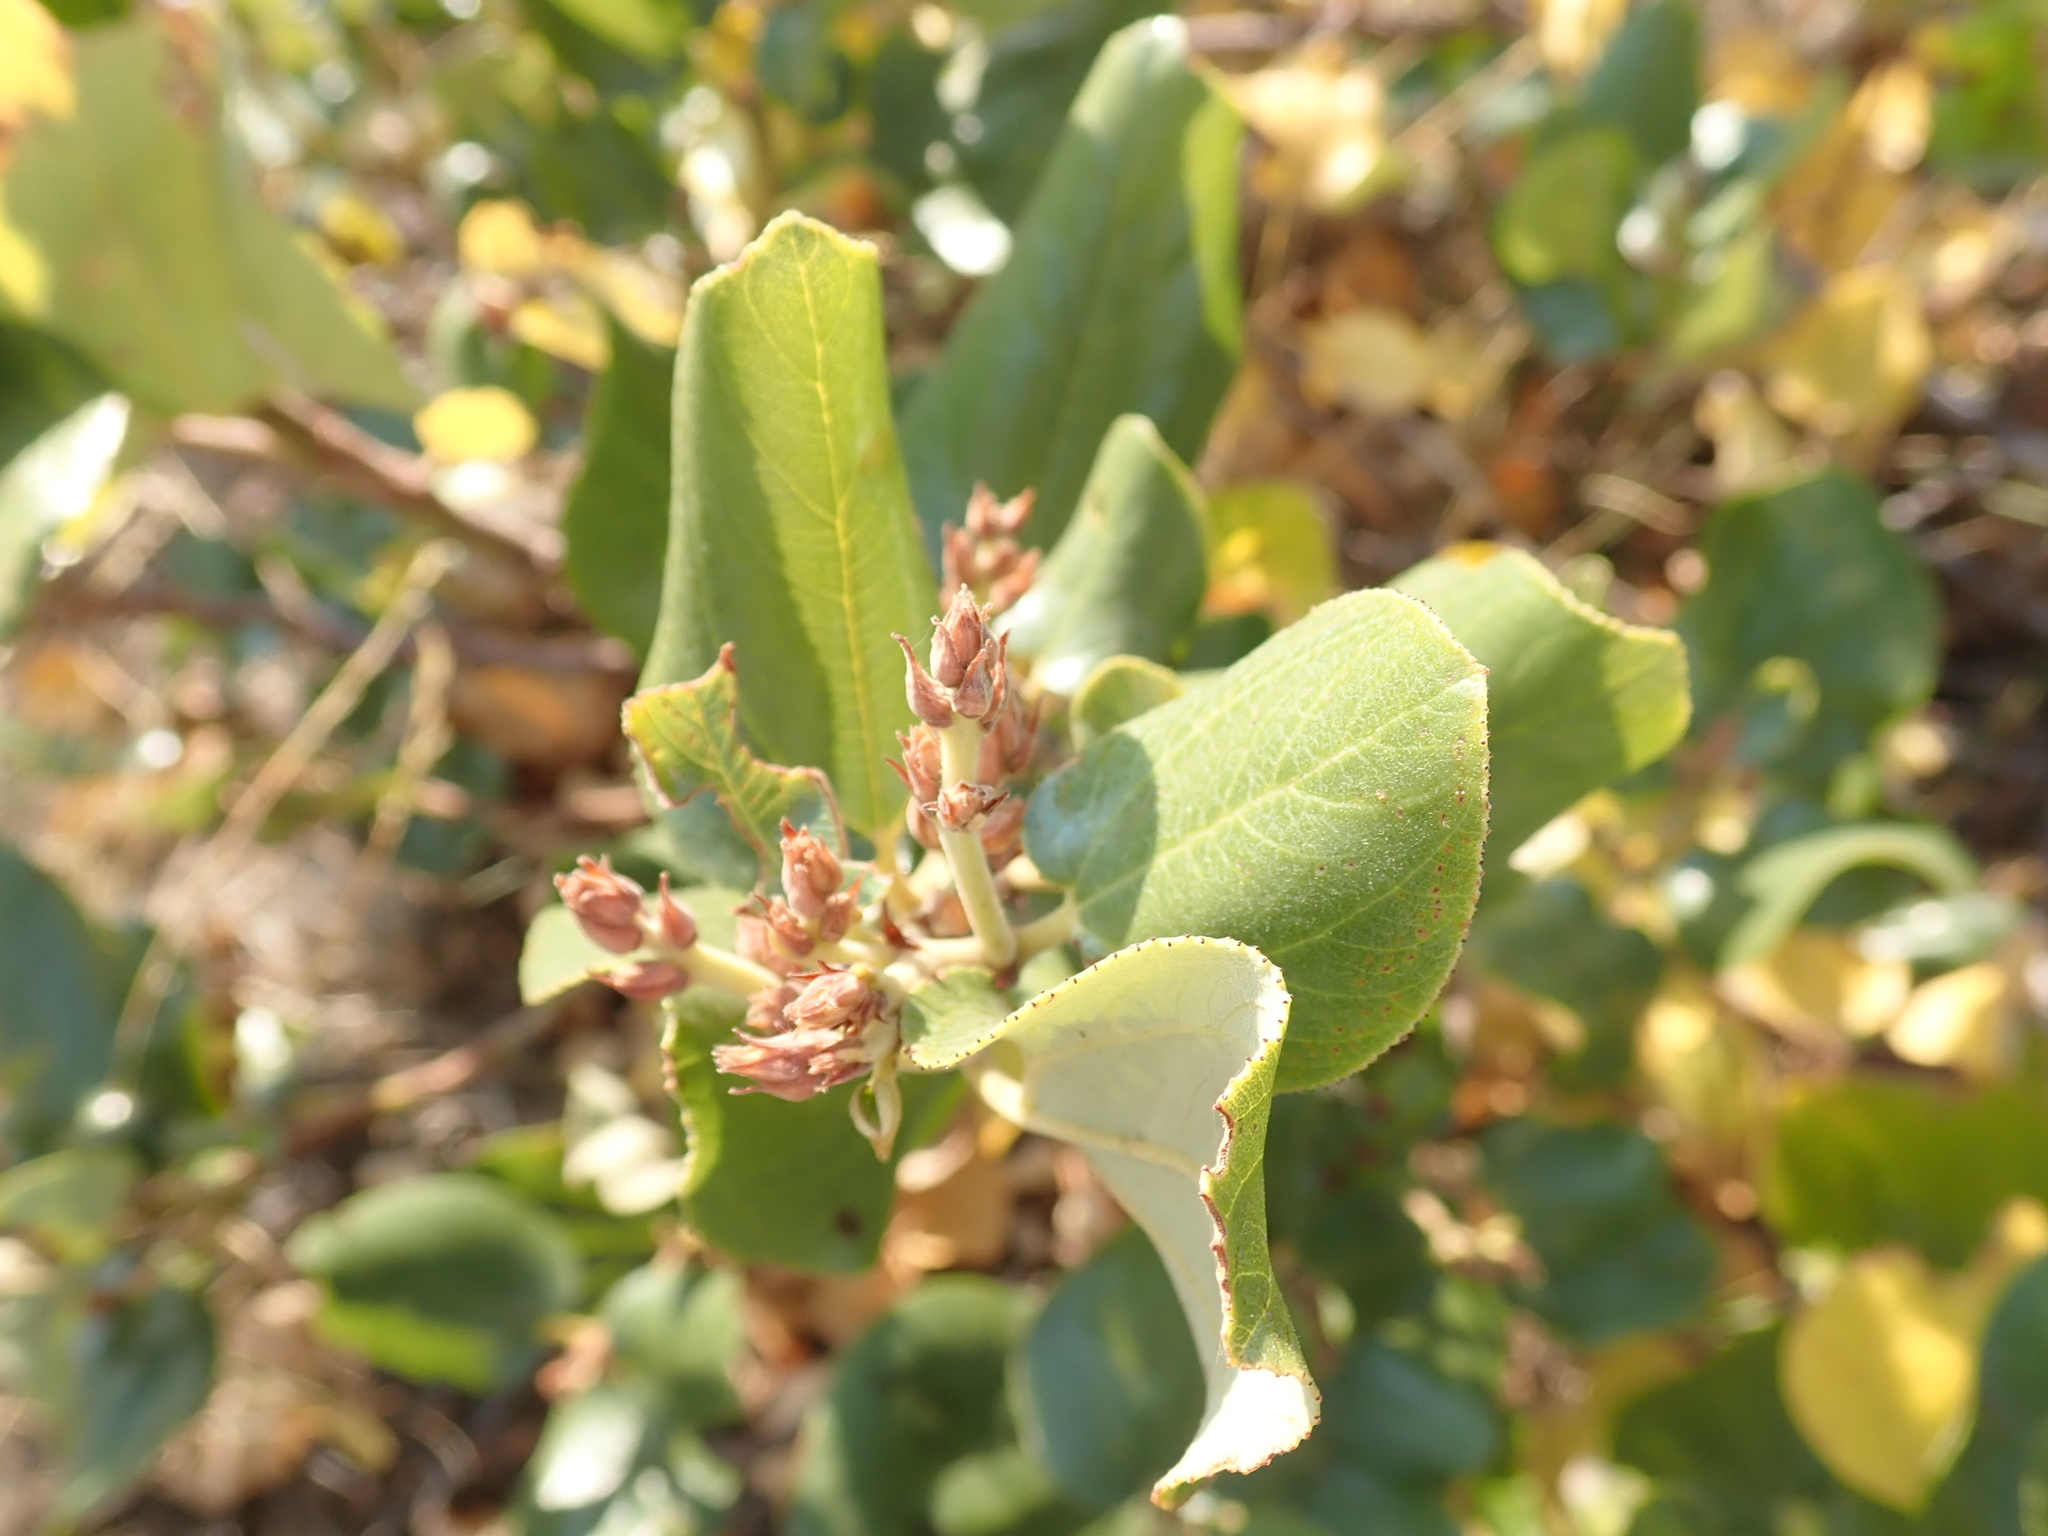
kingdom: Plantae
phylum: Tracheophyta
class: Magnoliopsida
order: Rosales
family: Rhamnaceae
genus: Ceanothus
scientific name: Ceanothus velutinus
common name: Snowbrush
